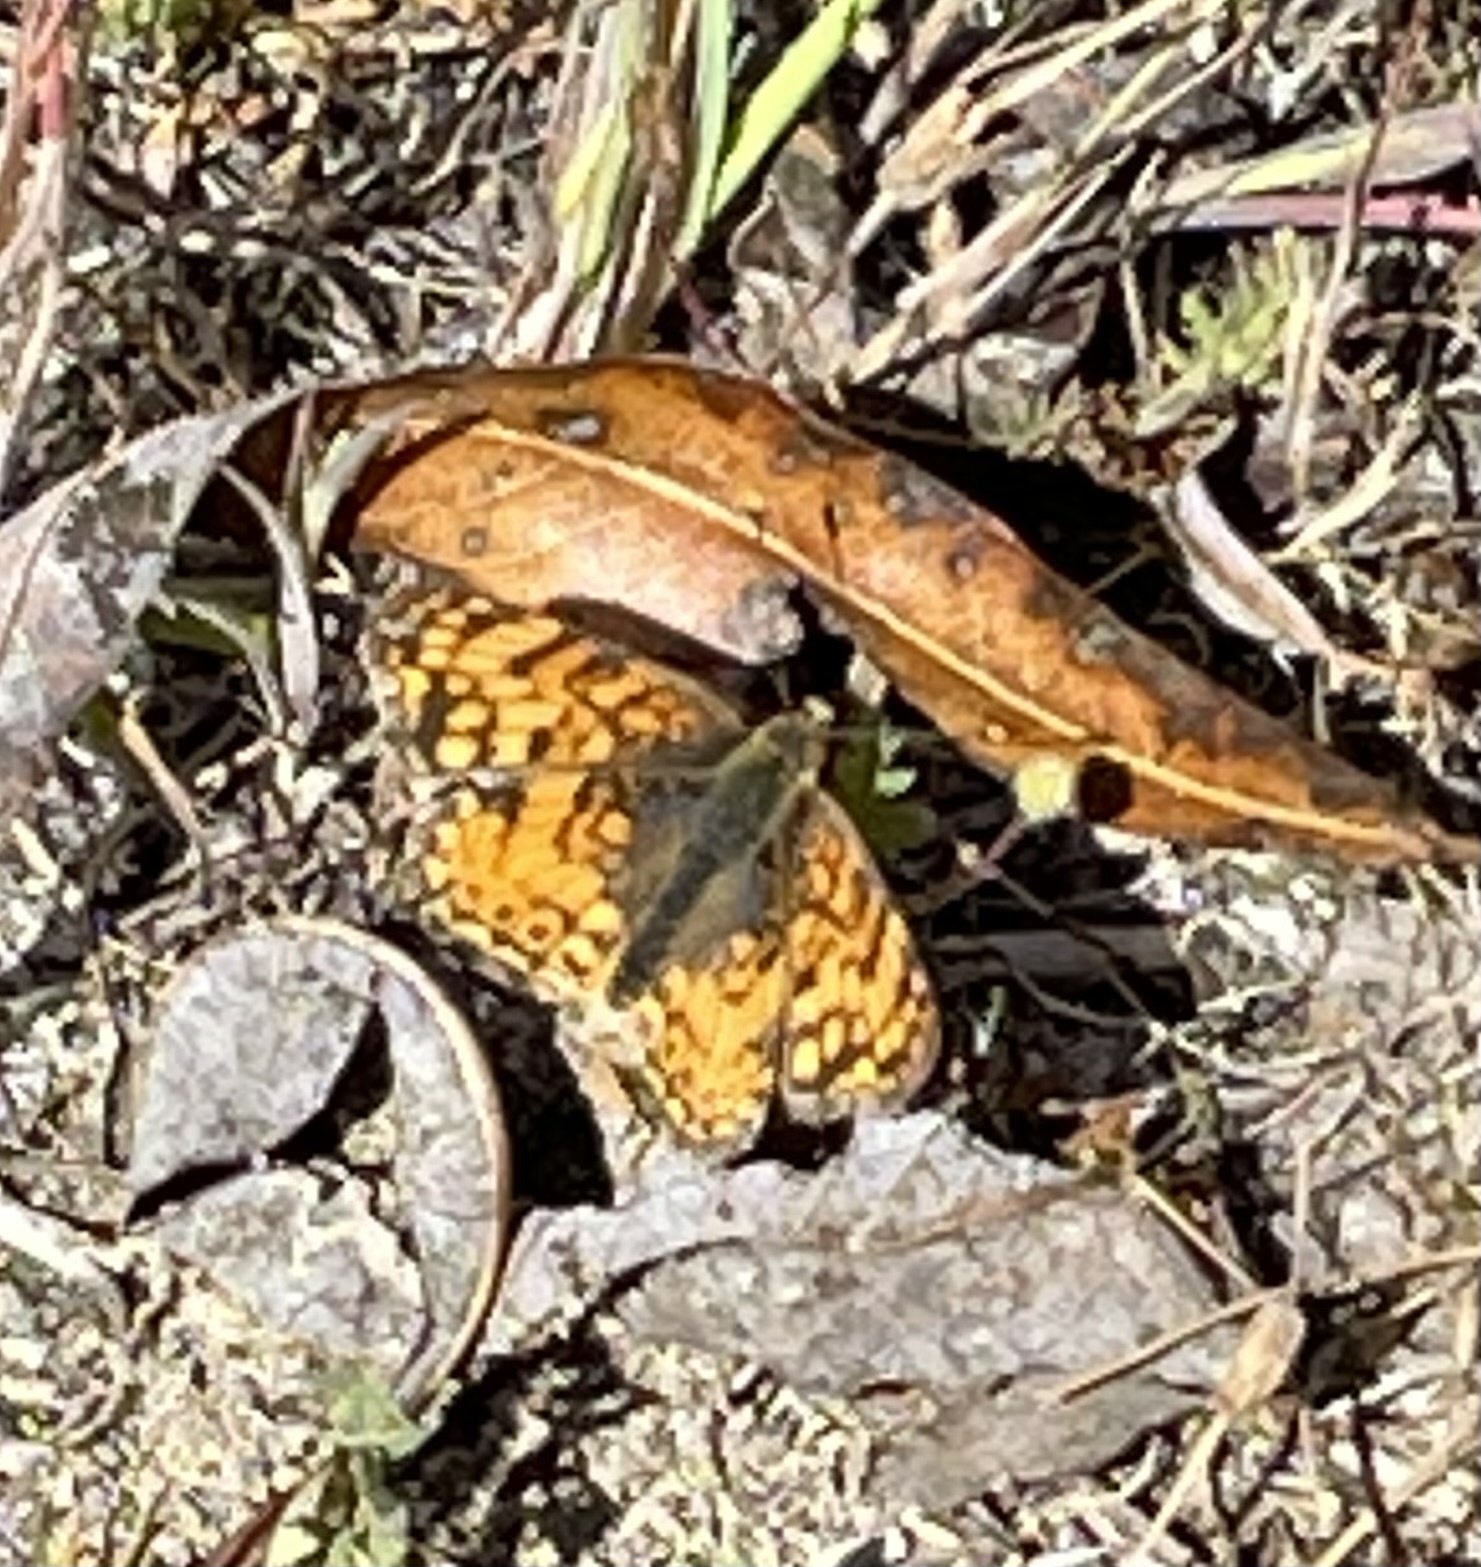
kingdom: Animalia
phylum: Arthropoda
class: Insecta
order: Lepidoptera
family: Nymphalidae
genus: Eresia
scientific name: Eresia aveyrona
